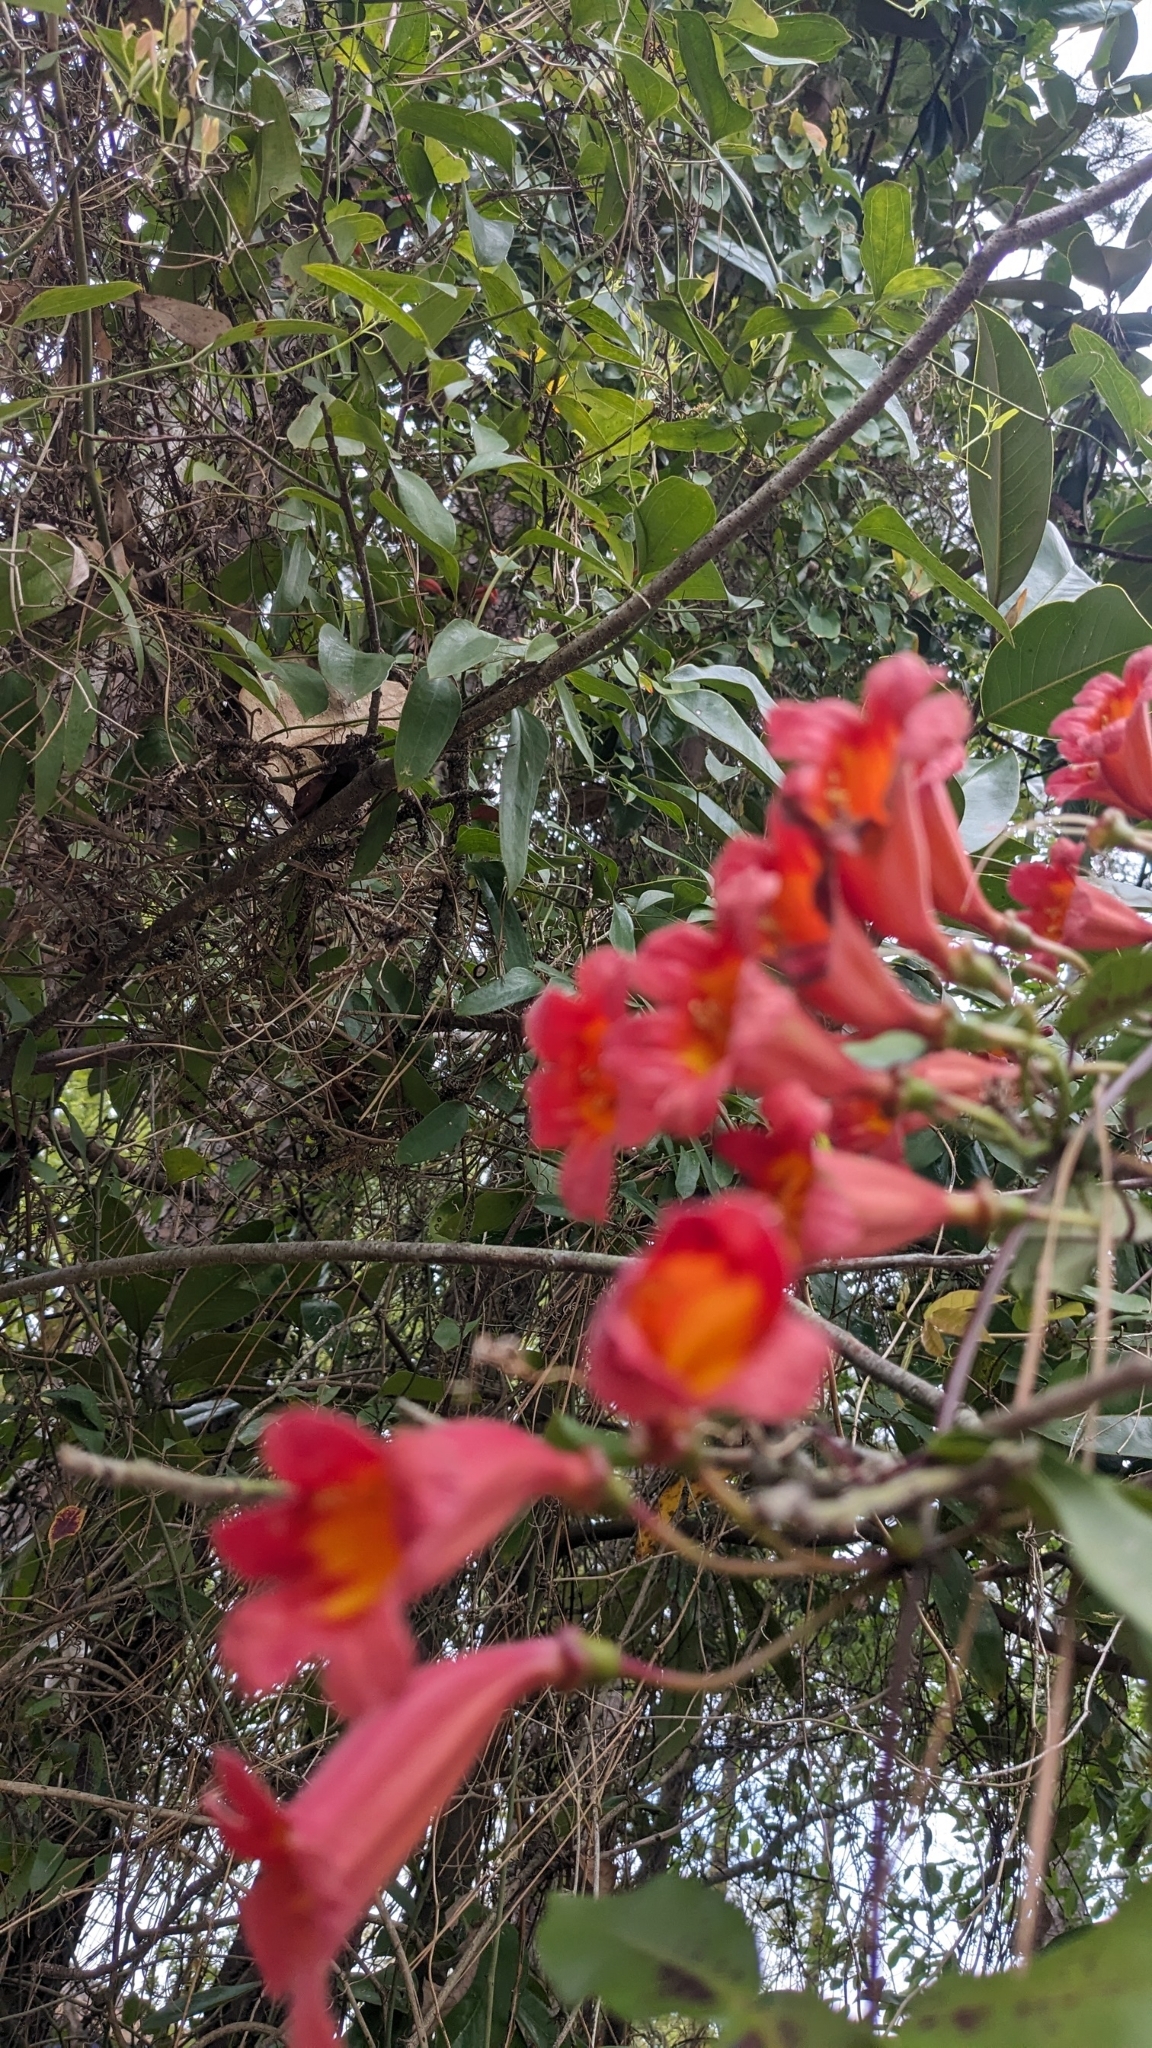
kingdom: Plantae
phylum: Tracheophyta
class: Magnoliopsida
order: Lamiales
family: Bignoniaceae
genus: Bignonia
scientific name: Bignonia capreolata
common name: Crossvine
